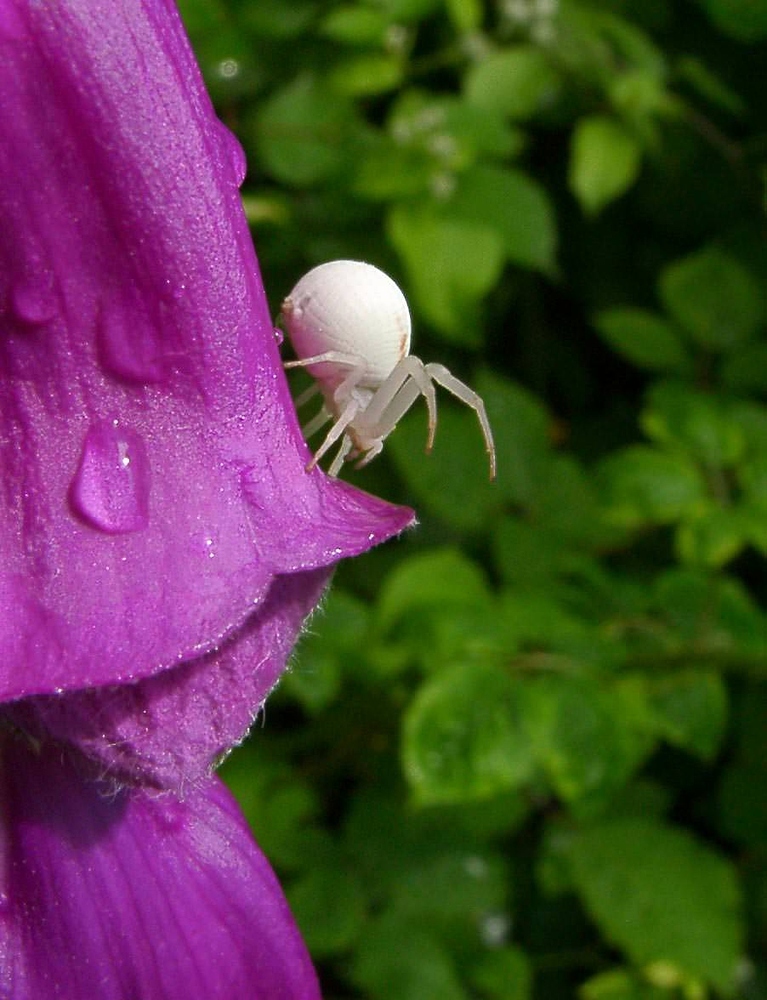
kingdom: Animalia
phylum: Arthropoda
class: Arachnida
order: Araneae
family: Thomisidae
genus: Misumena
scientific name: Misumena vatia
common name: Goldenrod crab spider
